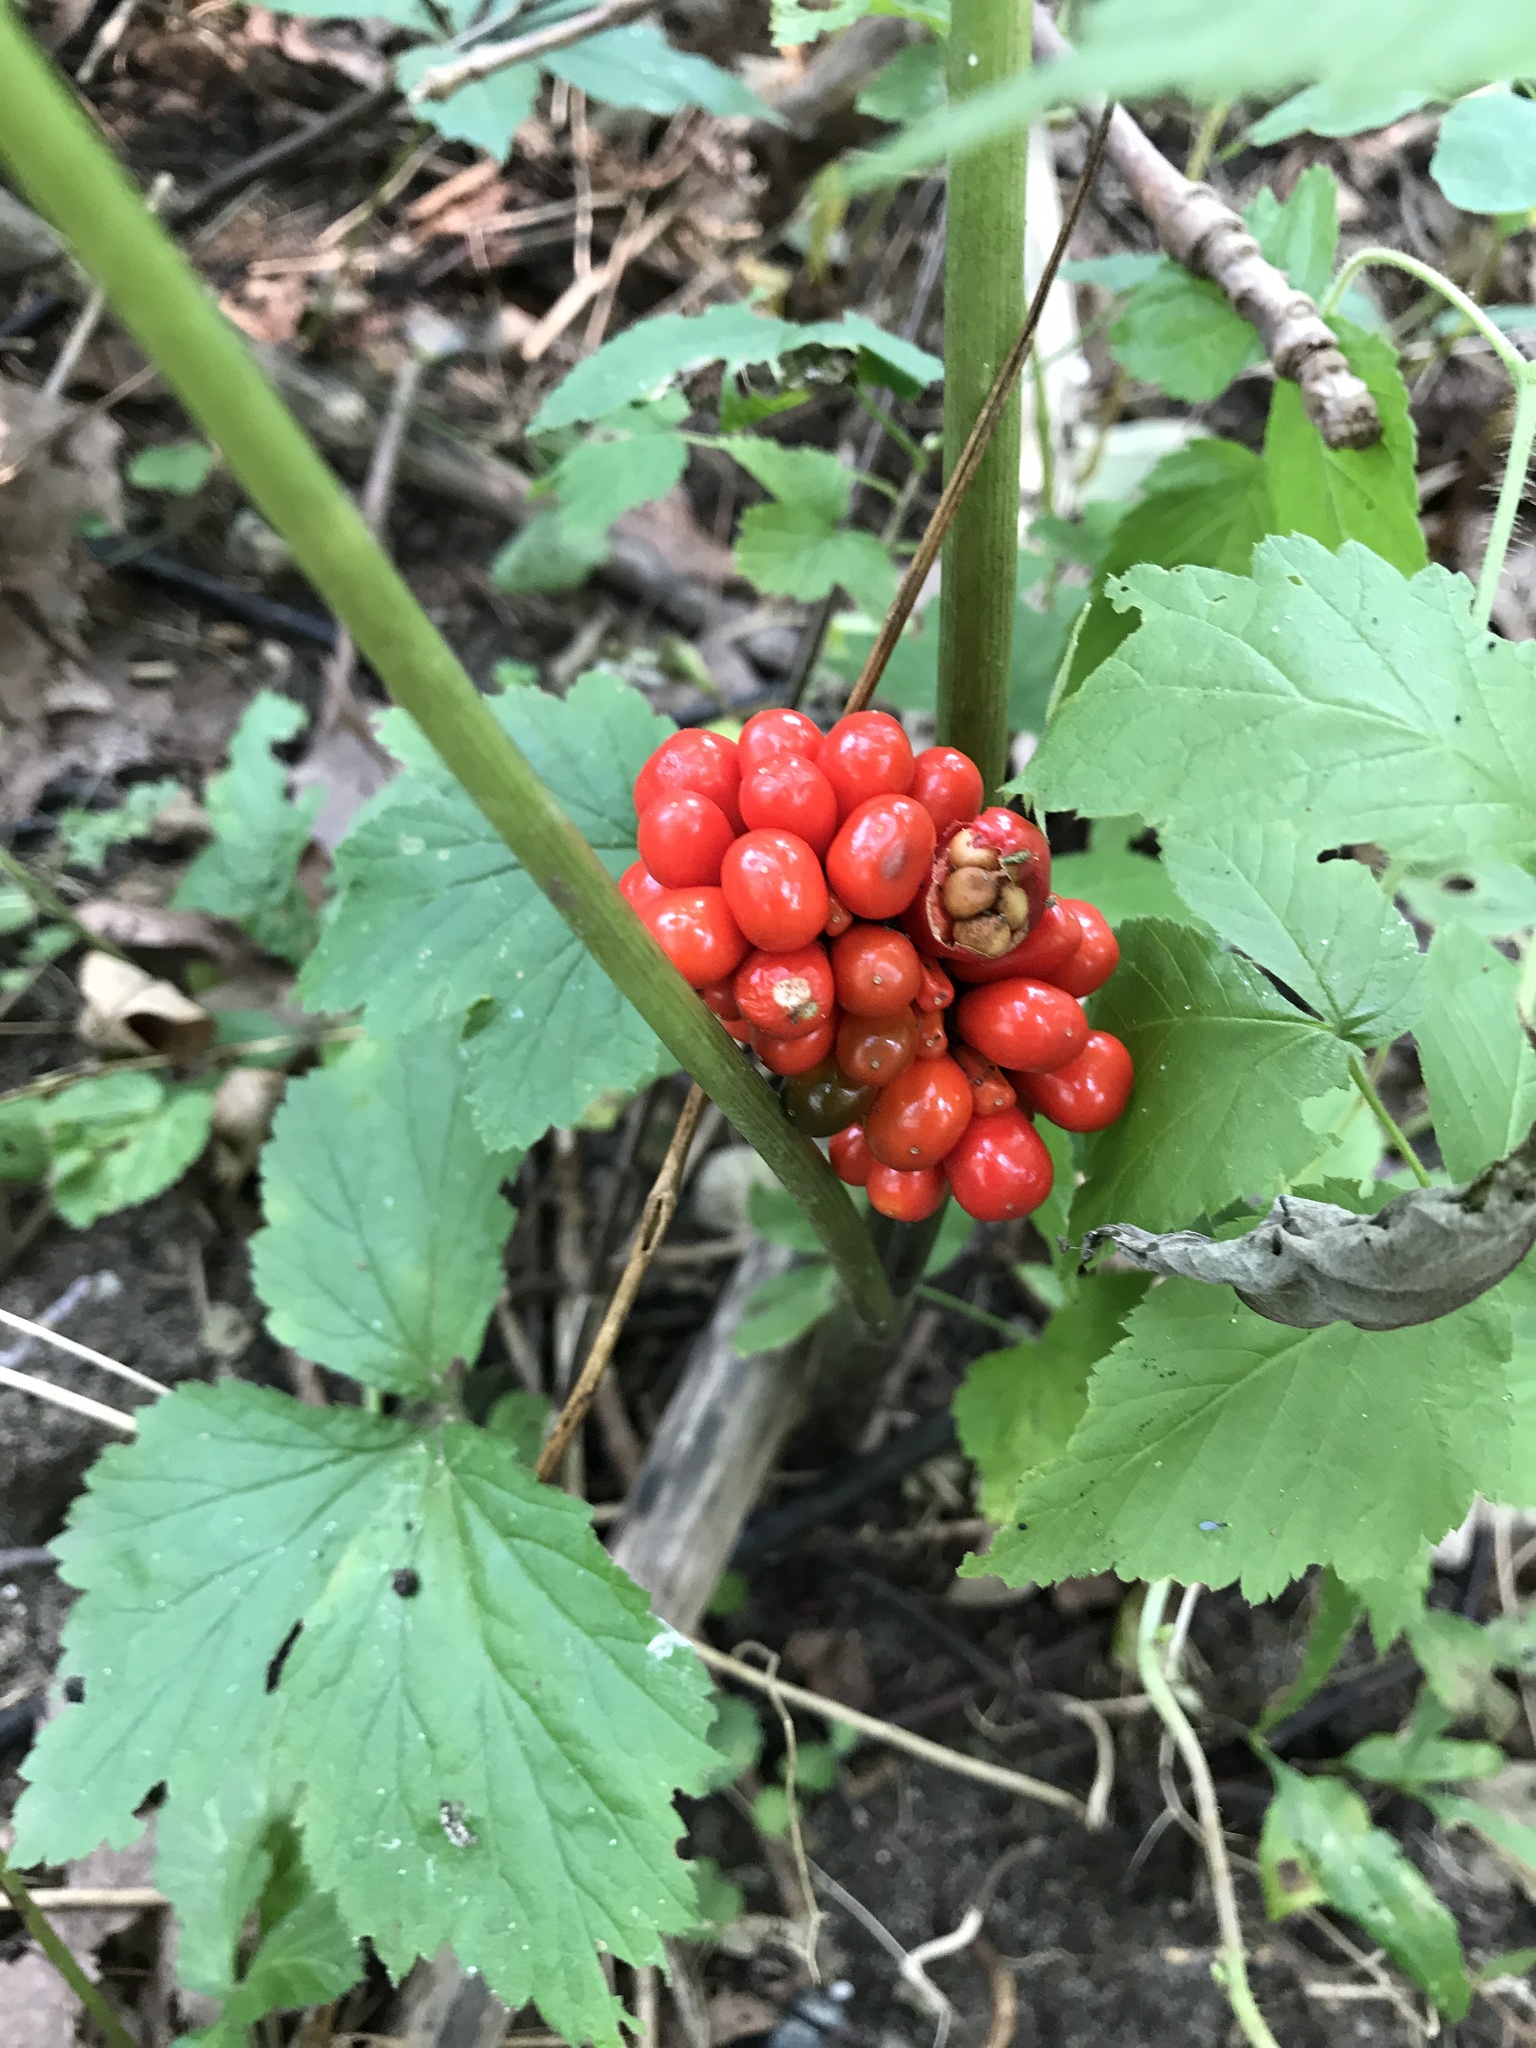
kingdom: Plantae
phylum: Tracheophyta
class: Liliopsida
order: Alismatales
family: Araceae
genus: Arisaema
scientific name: Arisaema triphyllum
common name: Jack-in-the-pulpit
